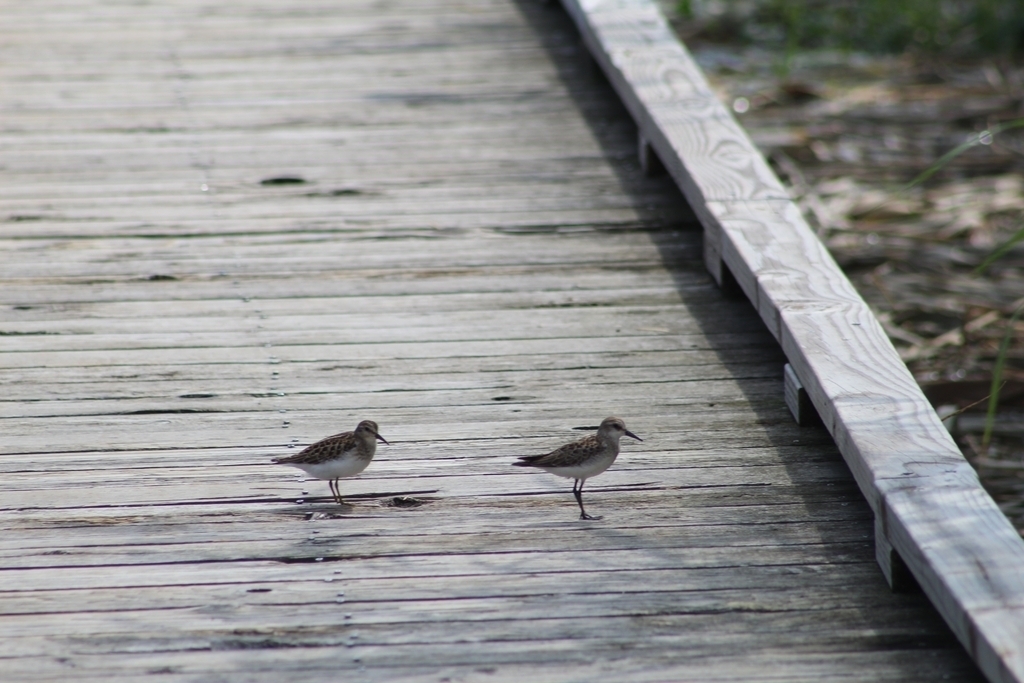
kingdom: Animalia
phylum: Chordata
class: Aves
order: Charadriiformes
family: Scolopacidae
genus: Calidris
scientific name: Calidris pusilla
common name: Semipalmated sandpiper
